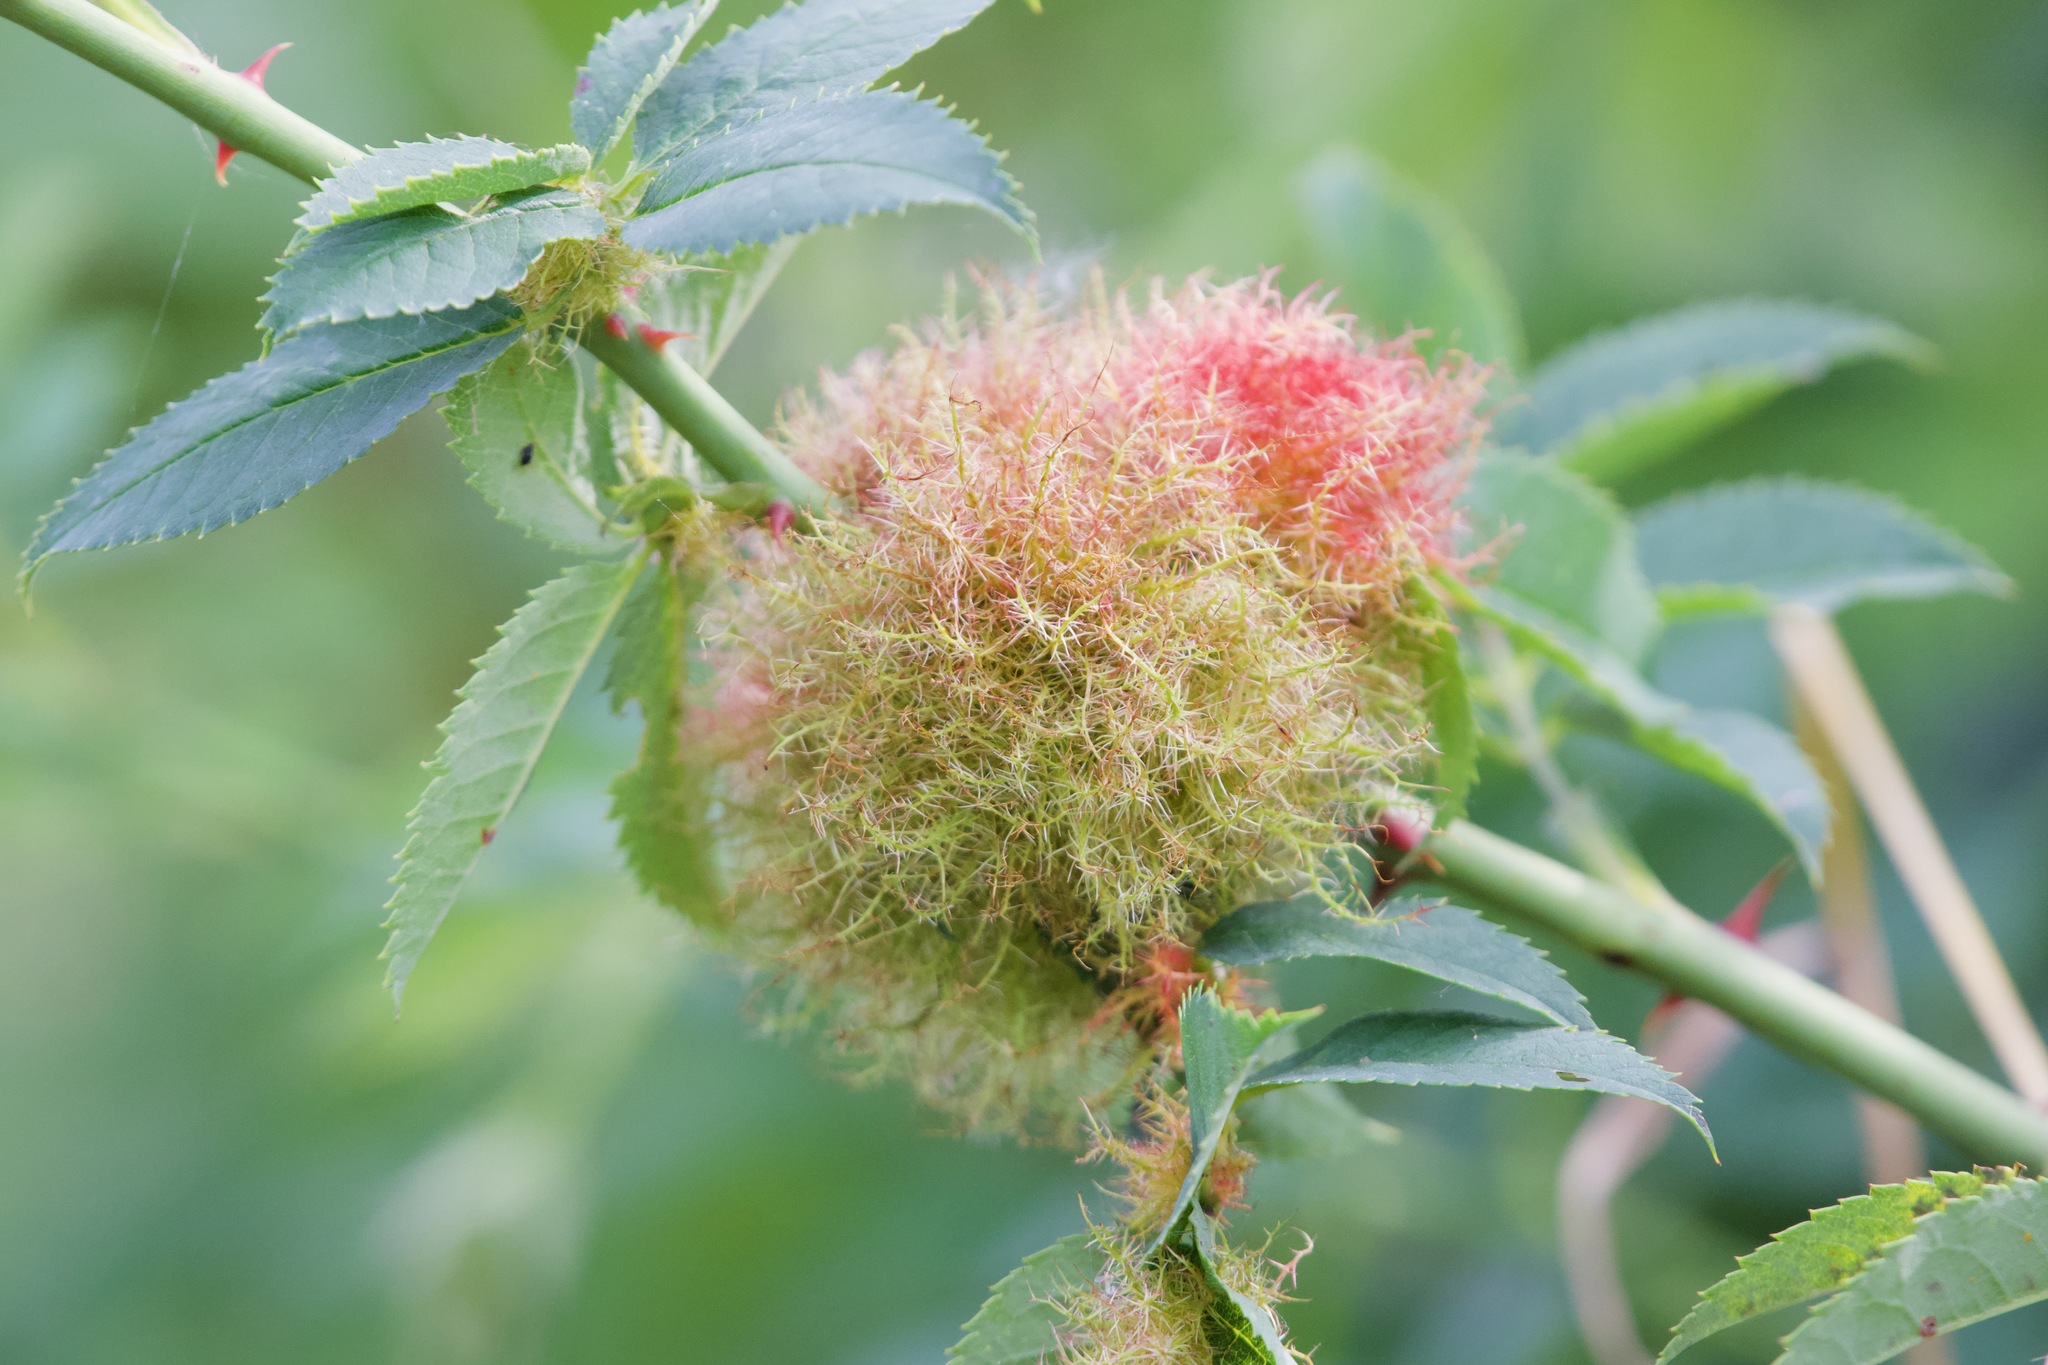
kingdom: Animalia
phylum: Arthropoda
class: Insecta
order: Hymenoptera
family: Cynipidae
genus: Diplolepis
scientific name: Diplolepis rosae
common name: Bedeguar gall
